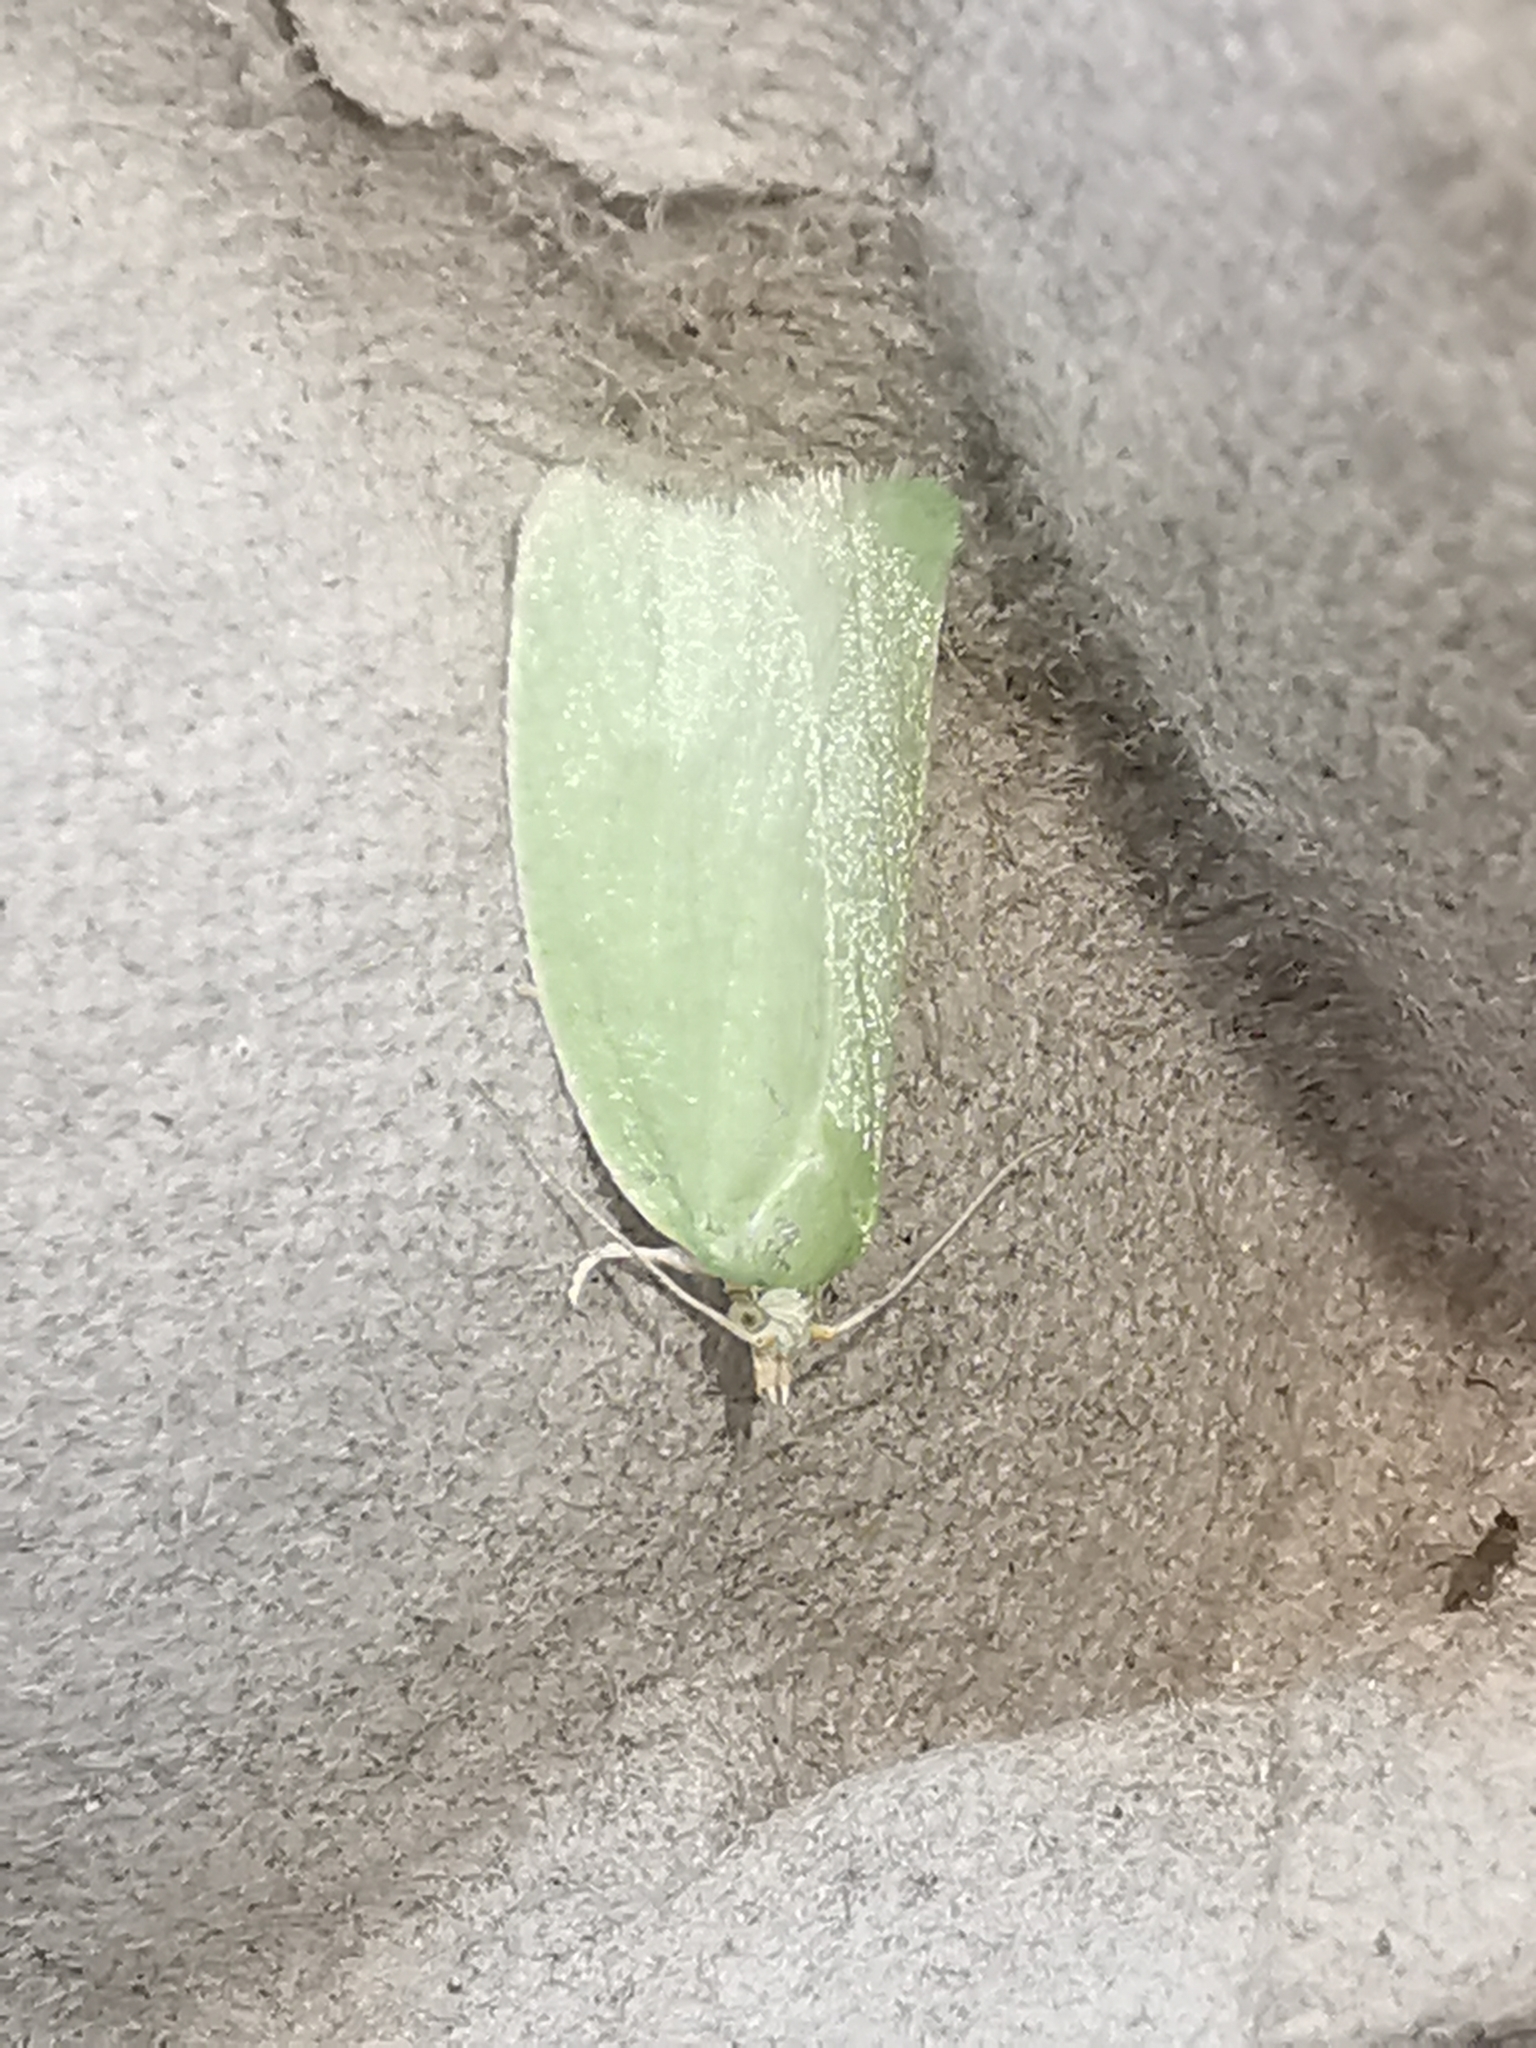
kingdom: Animalia
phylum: Arthropoda
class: Insecta
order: Lepidoptera
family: Tortricidae
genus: Tortrix
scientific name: Tortrix viridana
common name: Green oak tortrix
